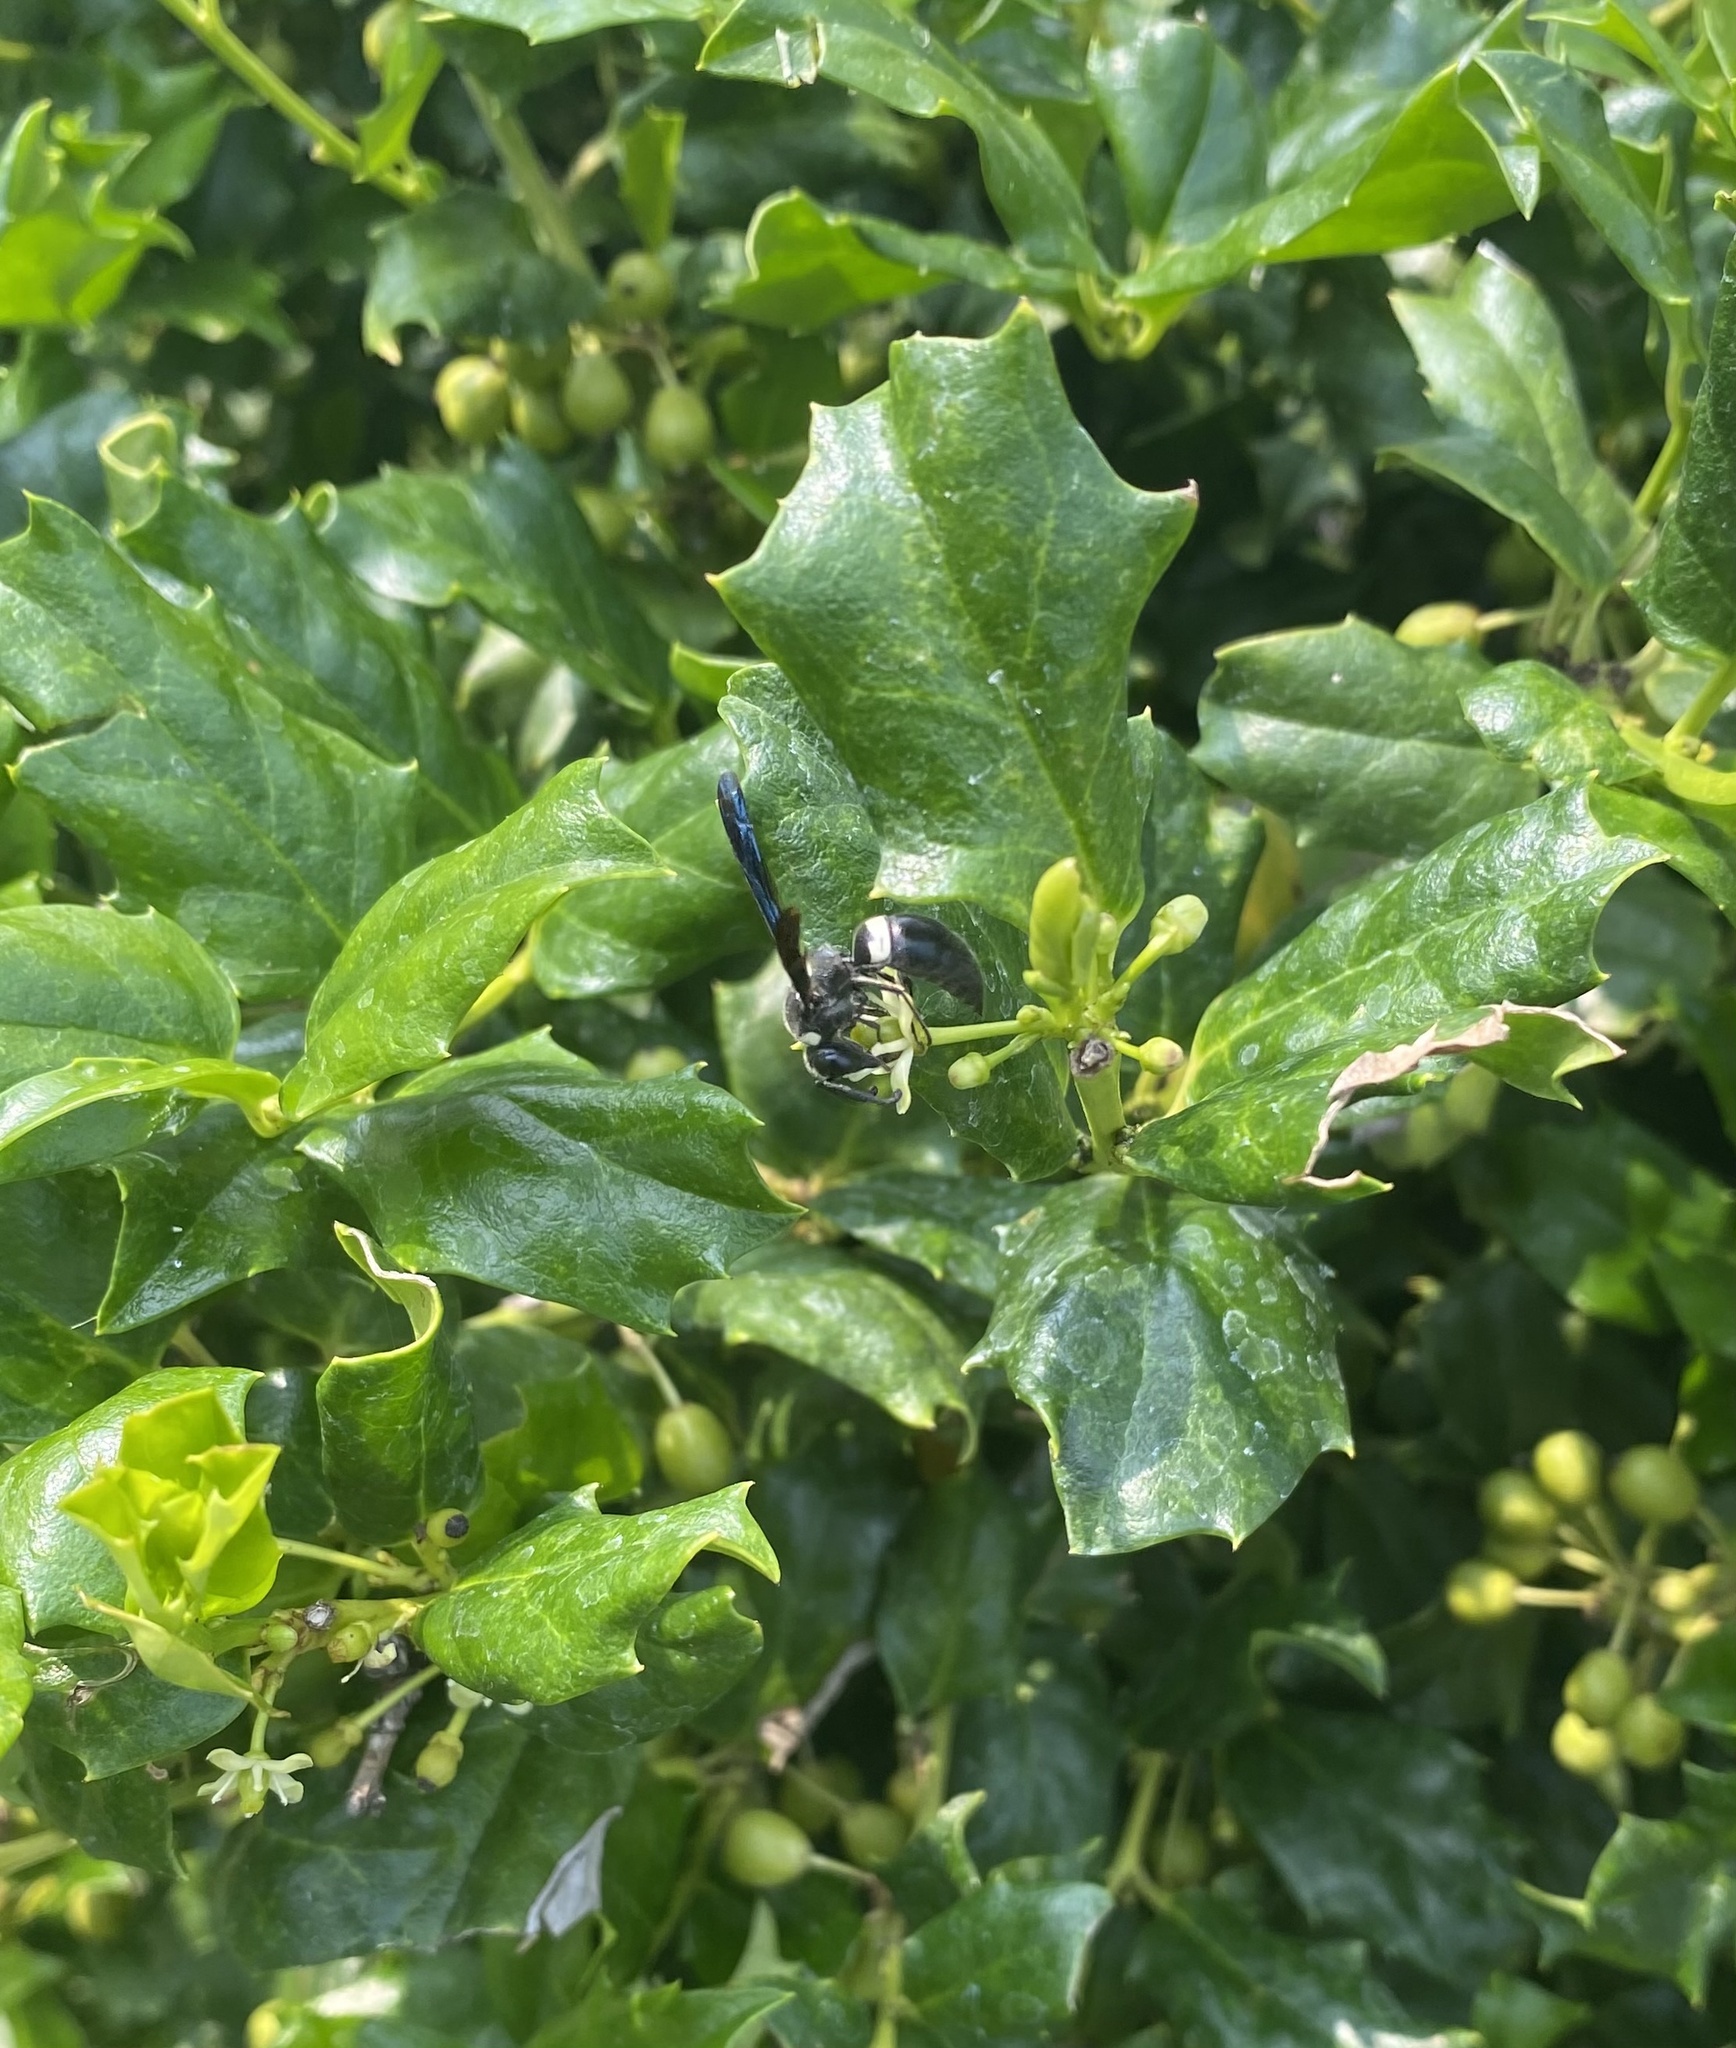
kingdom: Animalia
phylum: Arthropoda
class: Insecta
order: Hymenoptera
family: Eumenidae
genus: Monobia
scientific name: Monobia quadridens
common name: Four-toothed mason wasp
